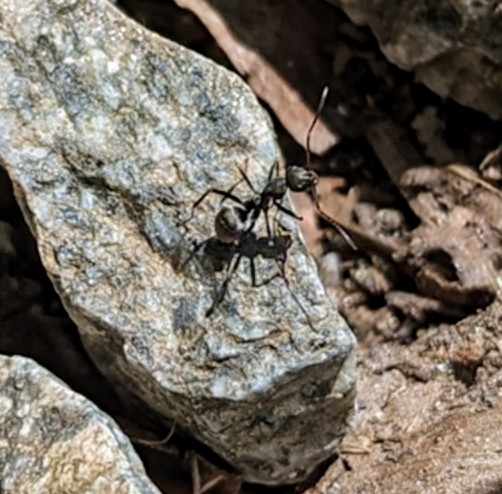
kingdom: Animalia
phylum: Arthropoda
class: Insecta
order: Hymenoptera
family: Formicidae
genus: Formica
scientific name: Formica japonica
